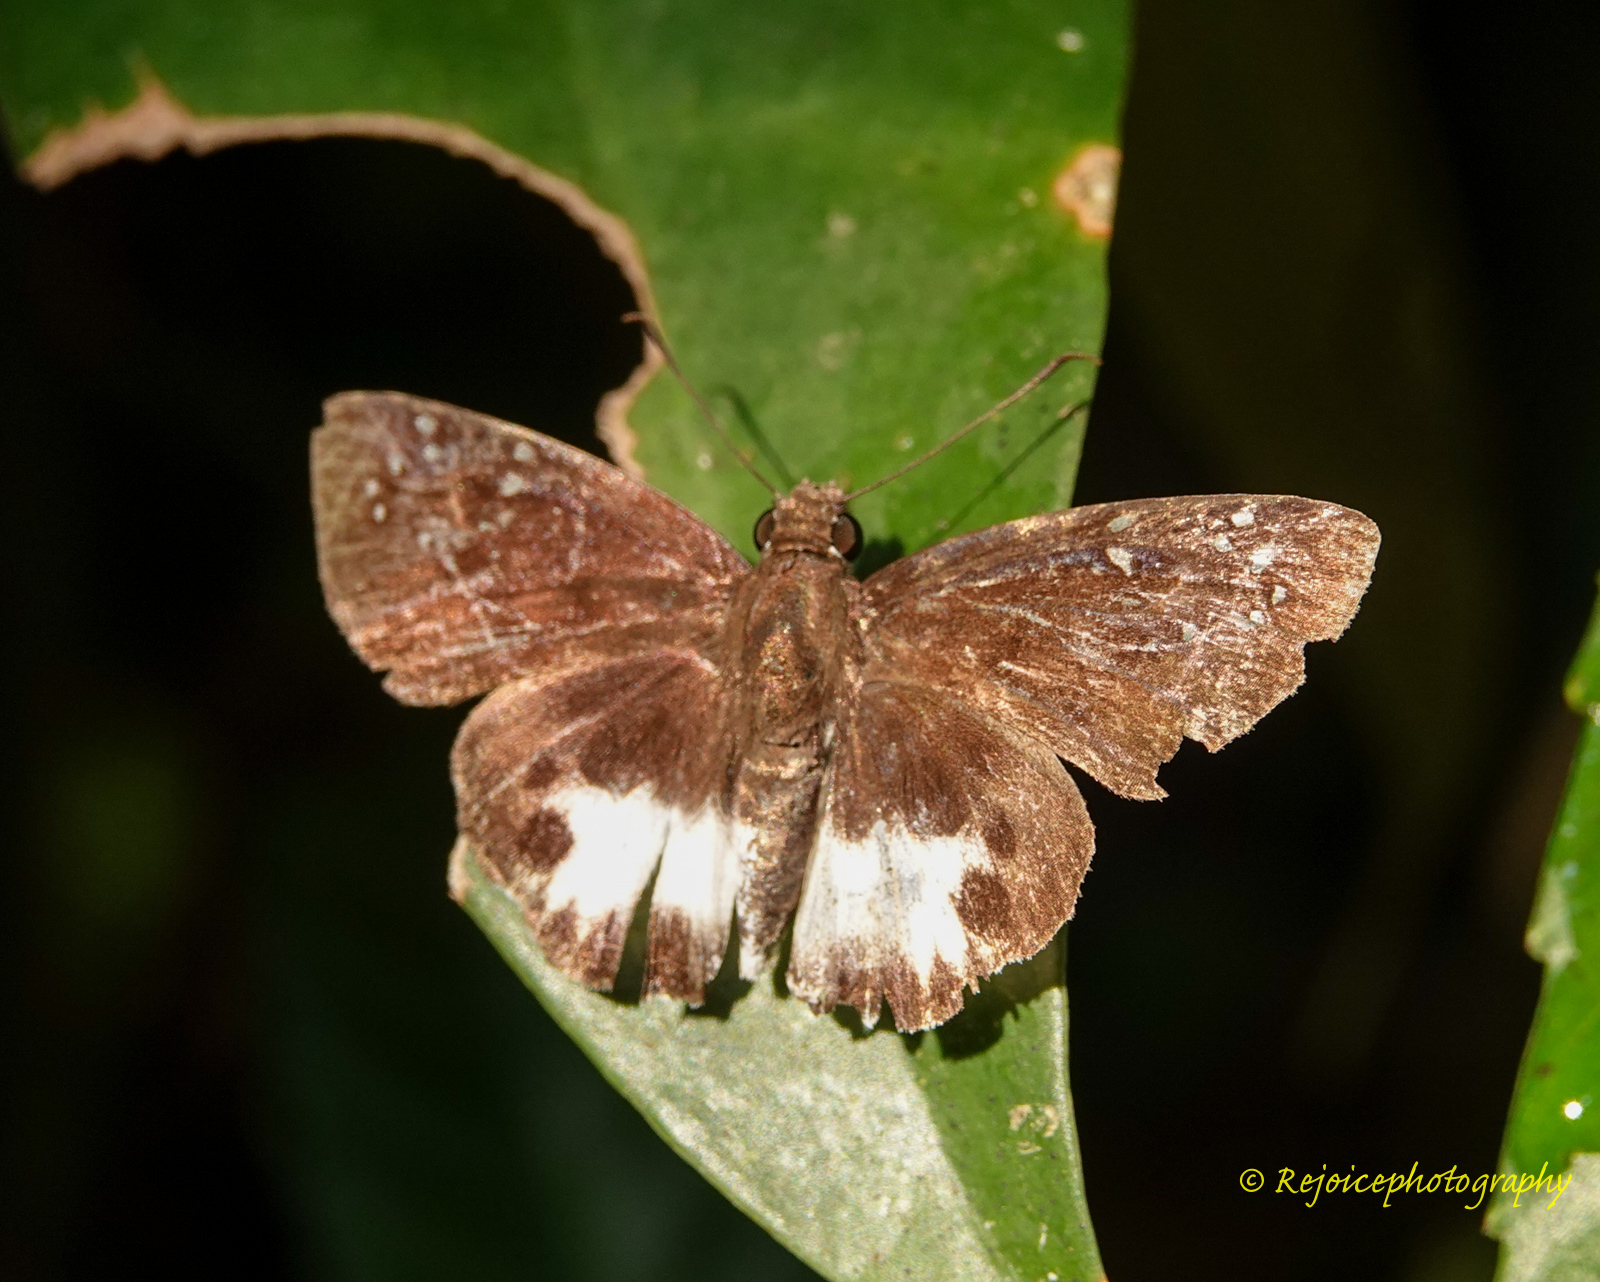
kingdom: Animalia
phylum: Arthropoda
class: Insecta
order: Lepidoptera
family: Hesperiidae
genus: Tagiades
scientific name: Tagiades litigiosa
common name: Water snow flat
